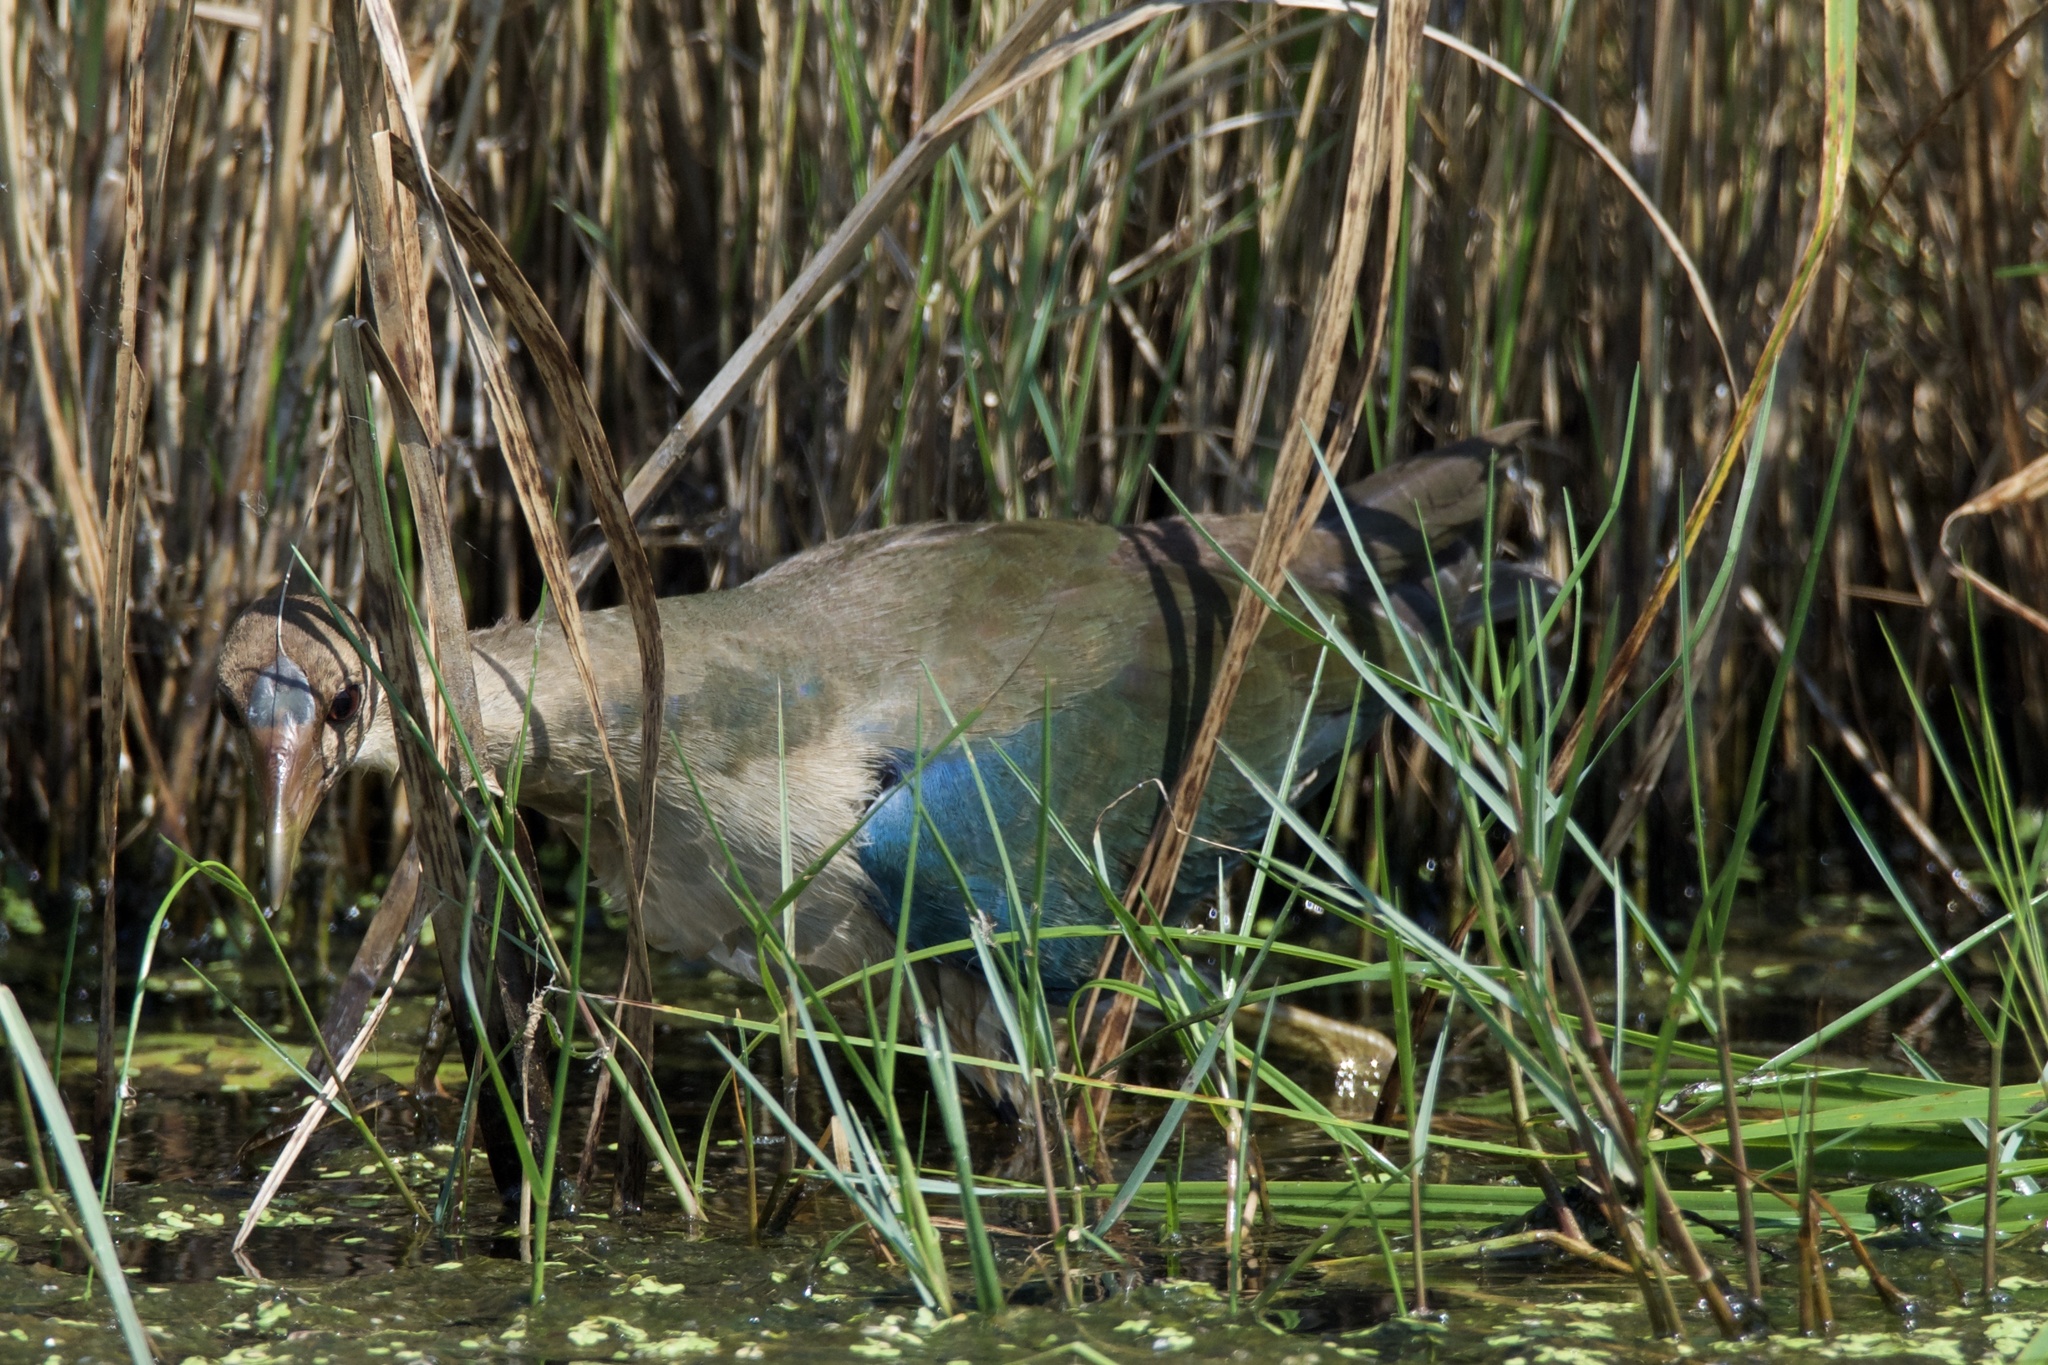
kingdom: Animalia
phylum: Chordata
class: Aves
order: Gruiformes
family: Rallidae
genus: Porphyrio
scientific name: Porphyrio martinica
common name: Purple gallinule
